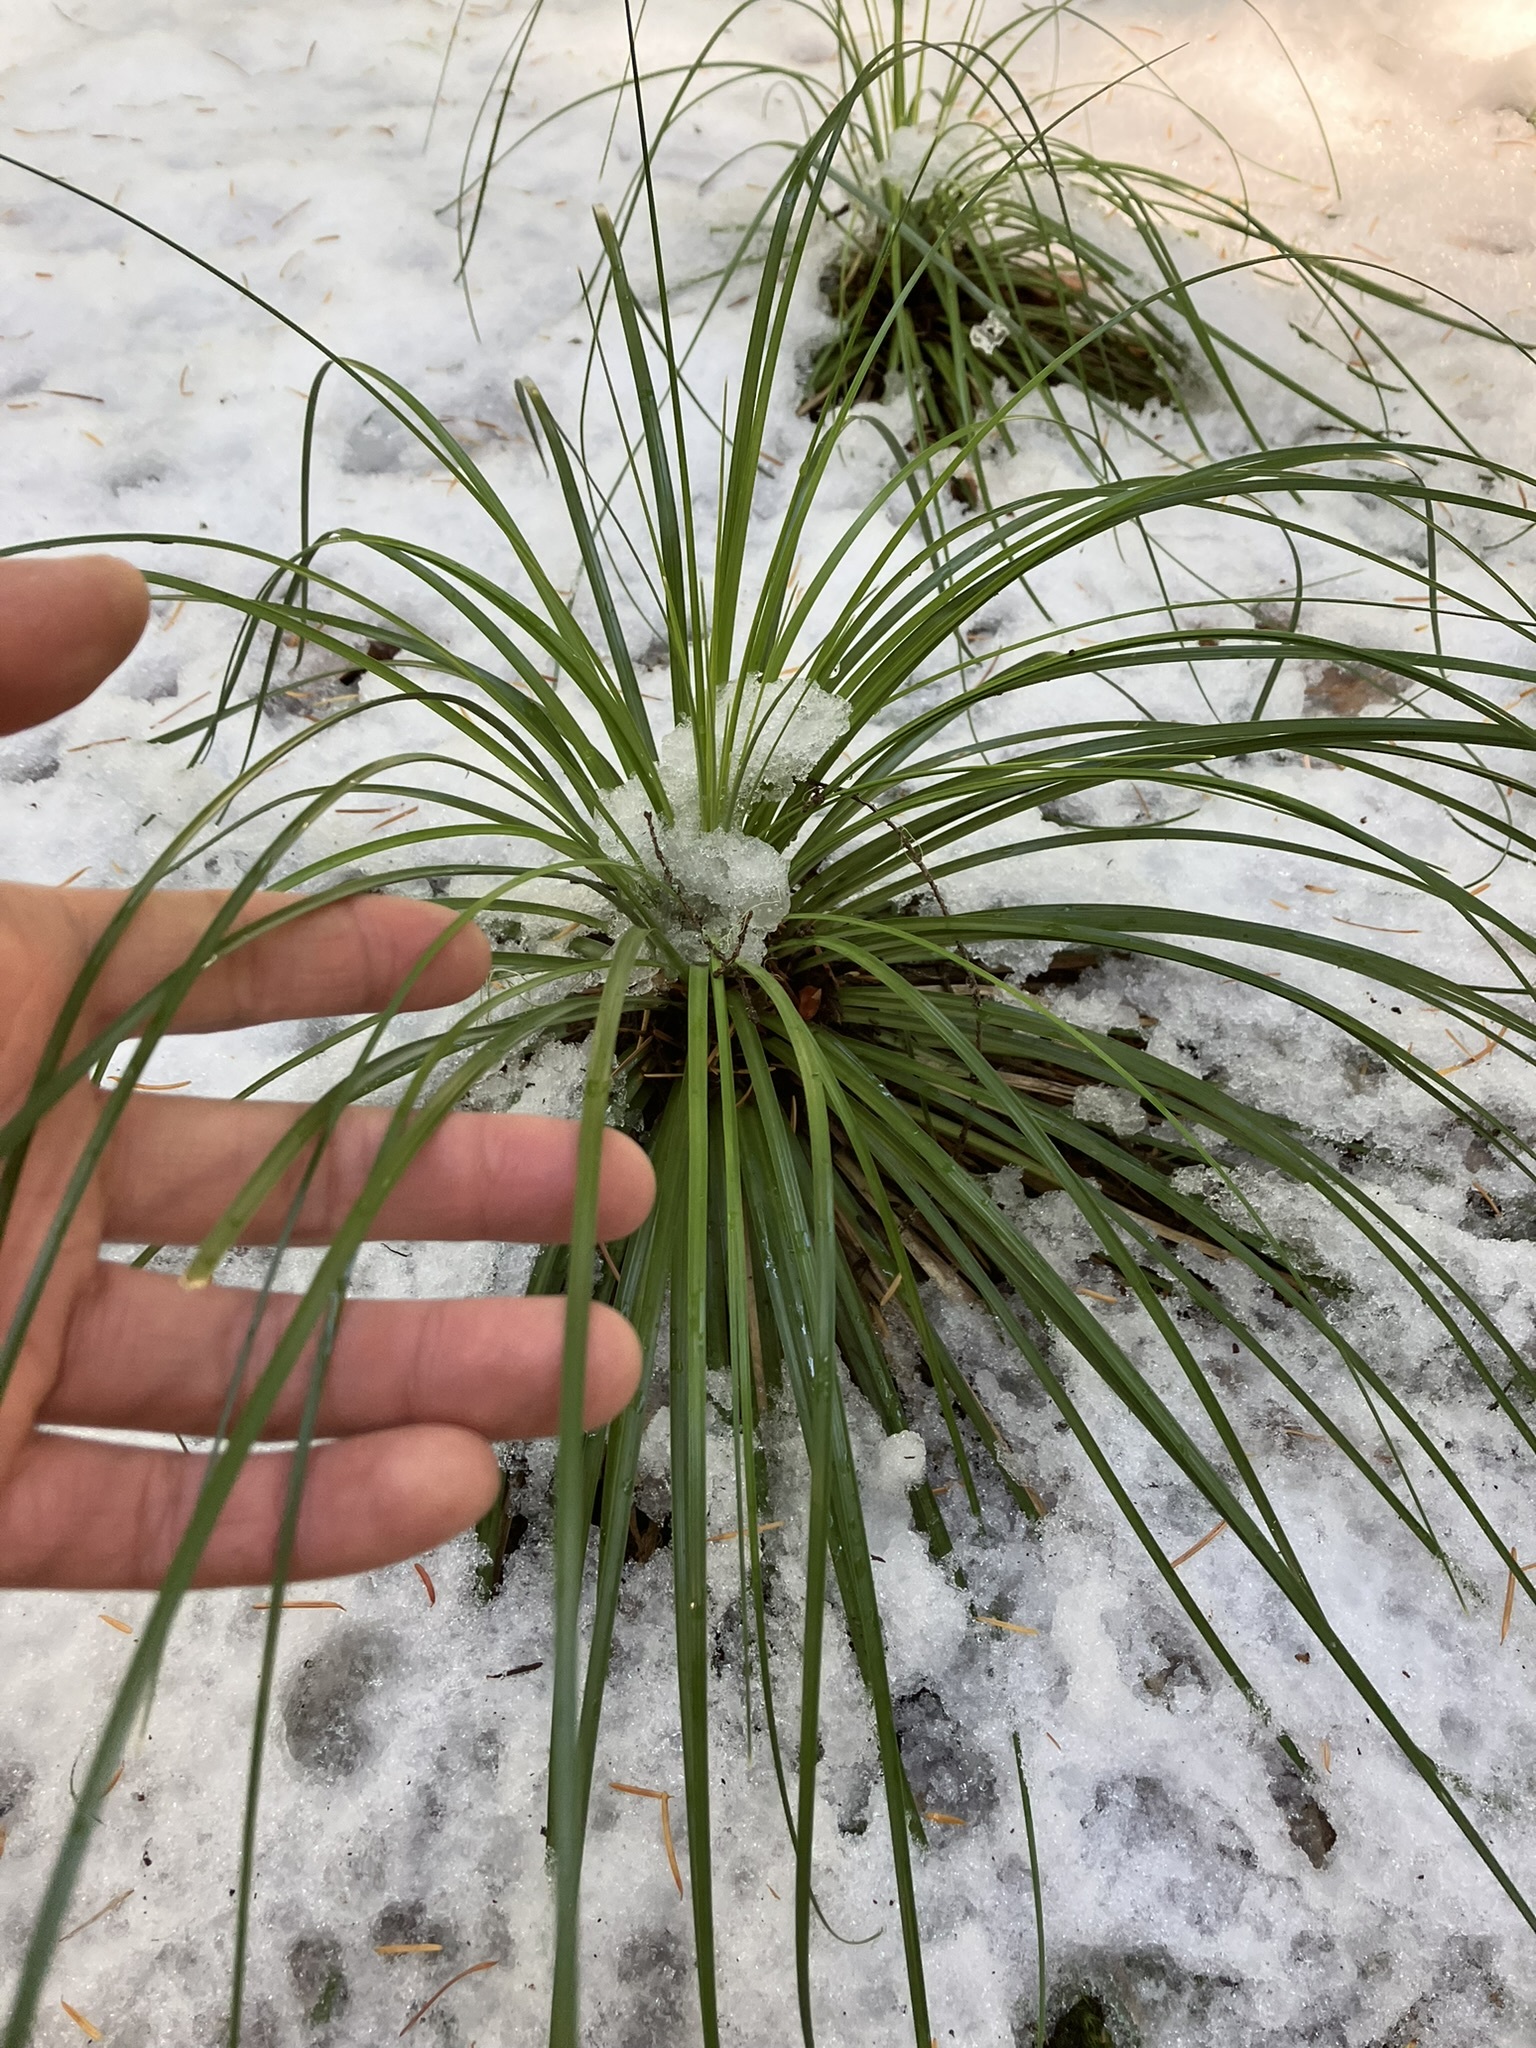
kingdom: Plantae
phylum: Tracheophyta
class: Liliopsida
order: Liliales
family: Melanthiaceae
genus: Xerophyllum
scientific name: Xerophyllum tenax
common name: Bear-grass
